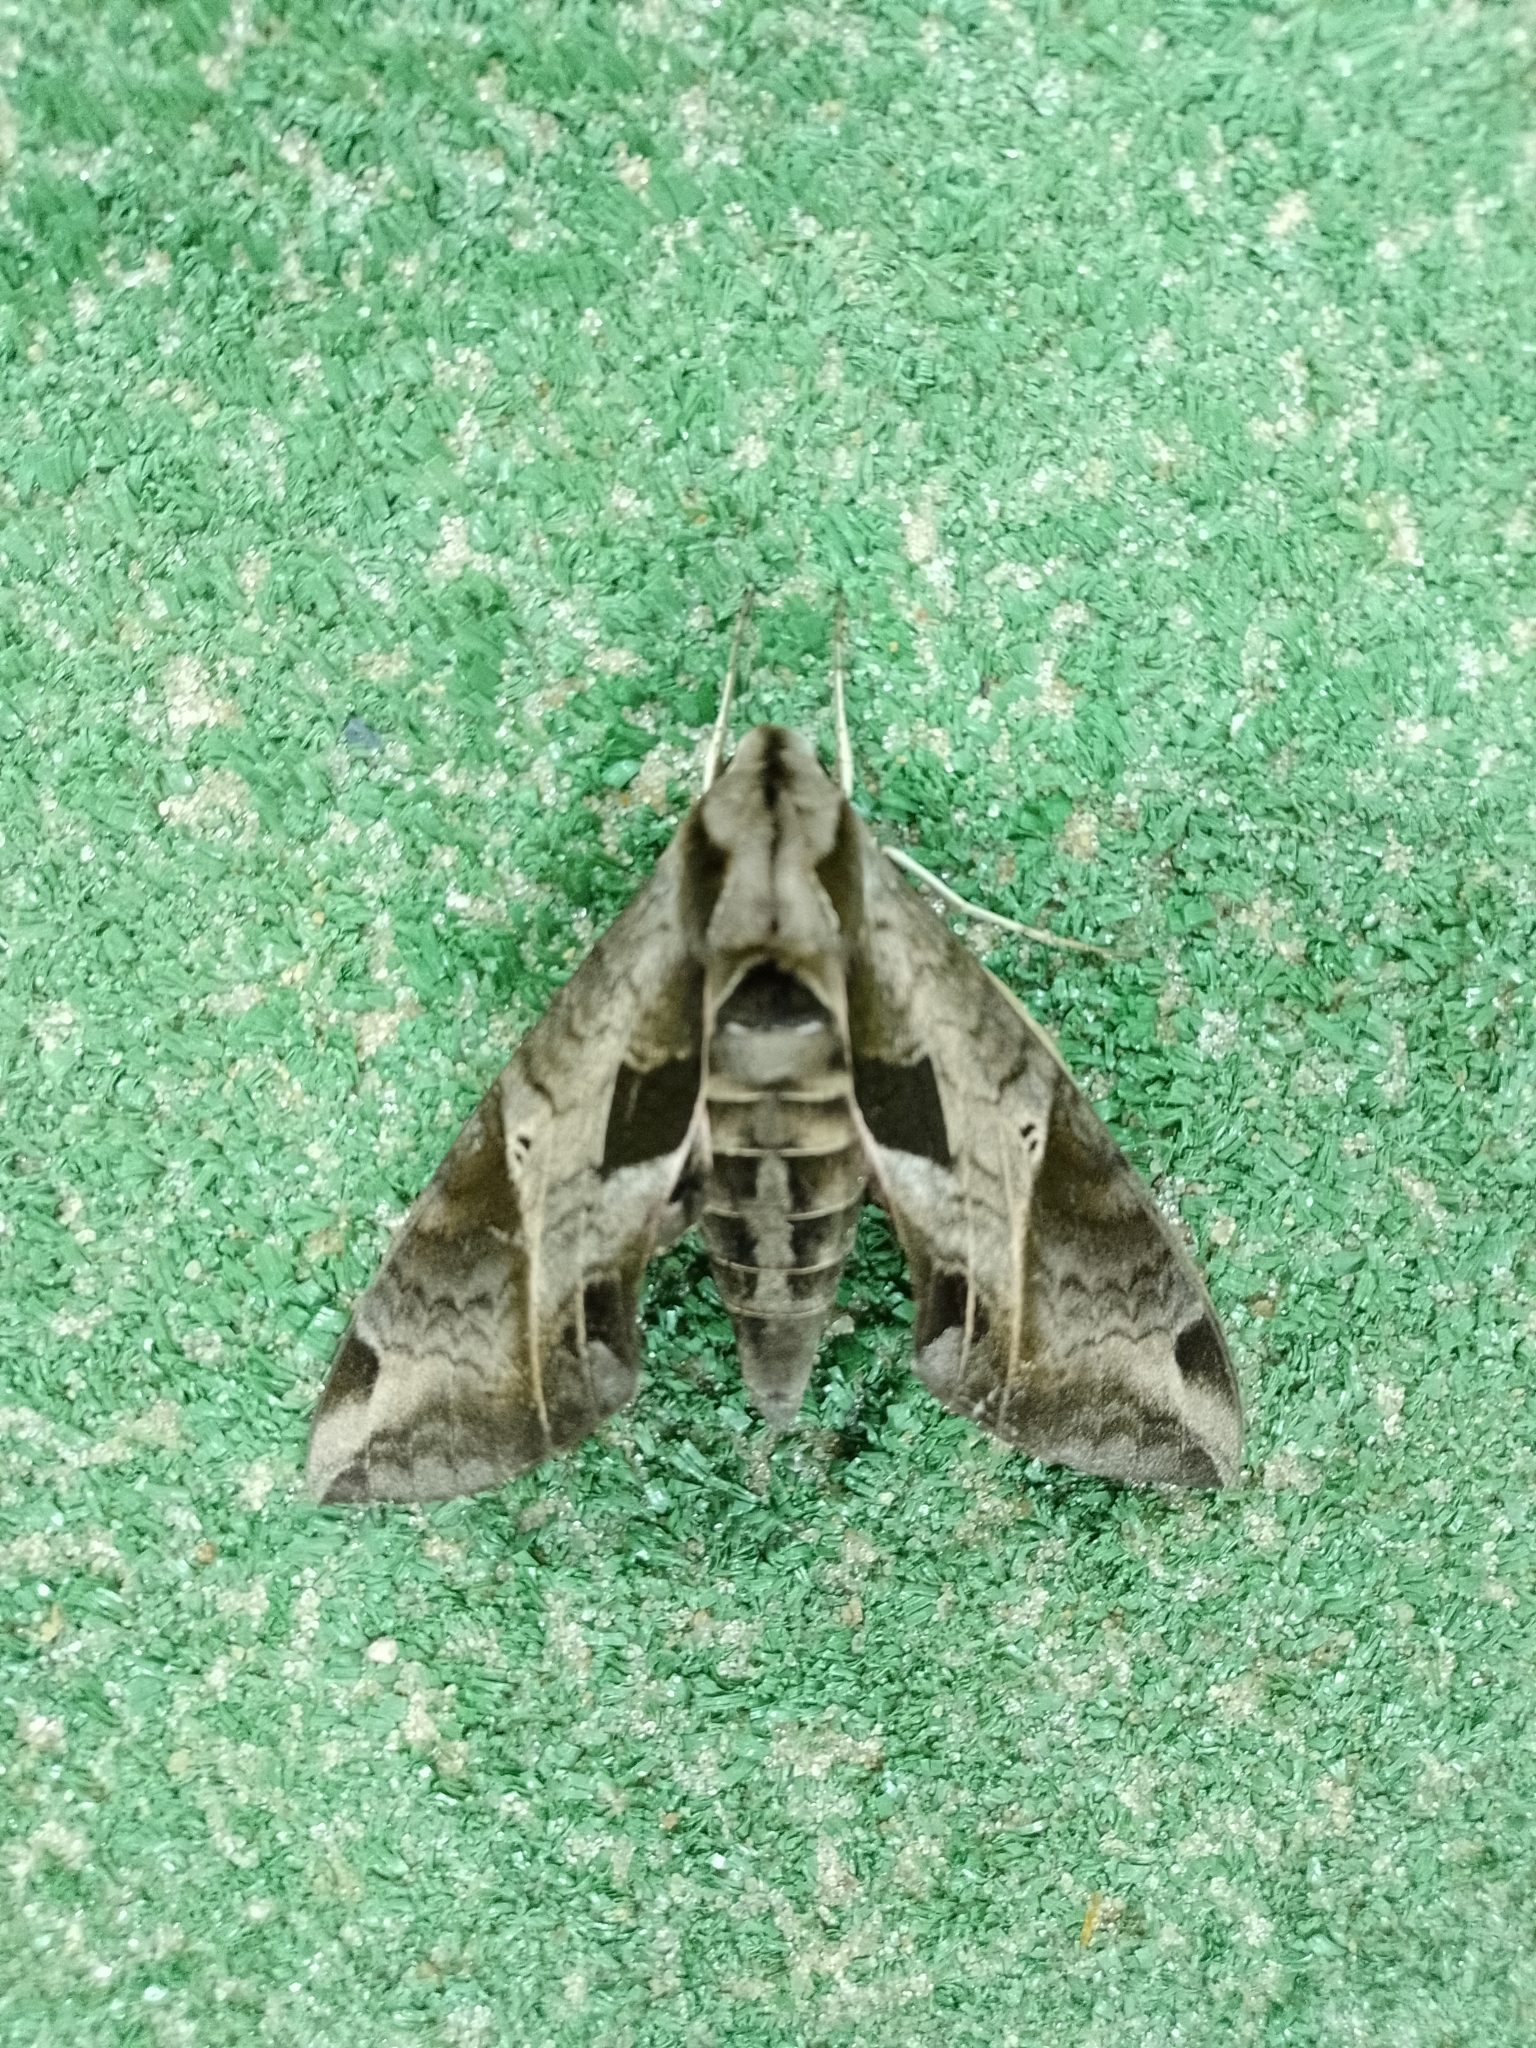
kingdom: Animalia
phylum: Arthropoda
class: Insecta
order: Lepidoptera
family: Sphingidae
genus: Eumorpha
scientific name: Eumorpha analis
